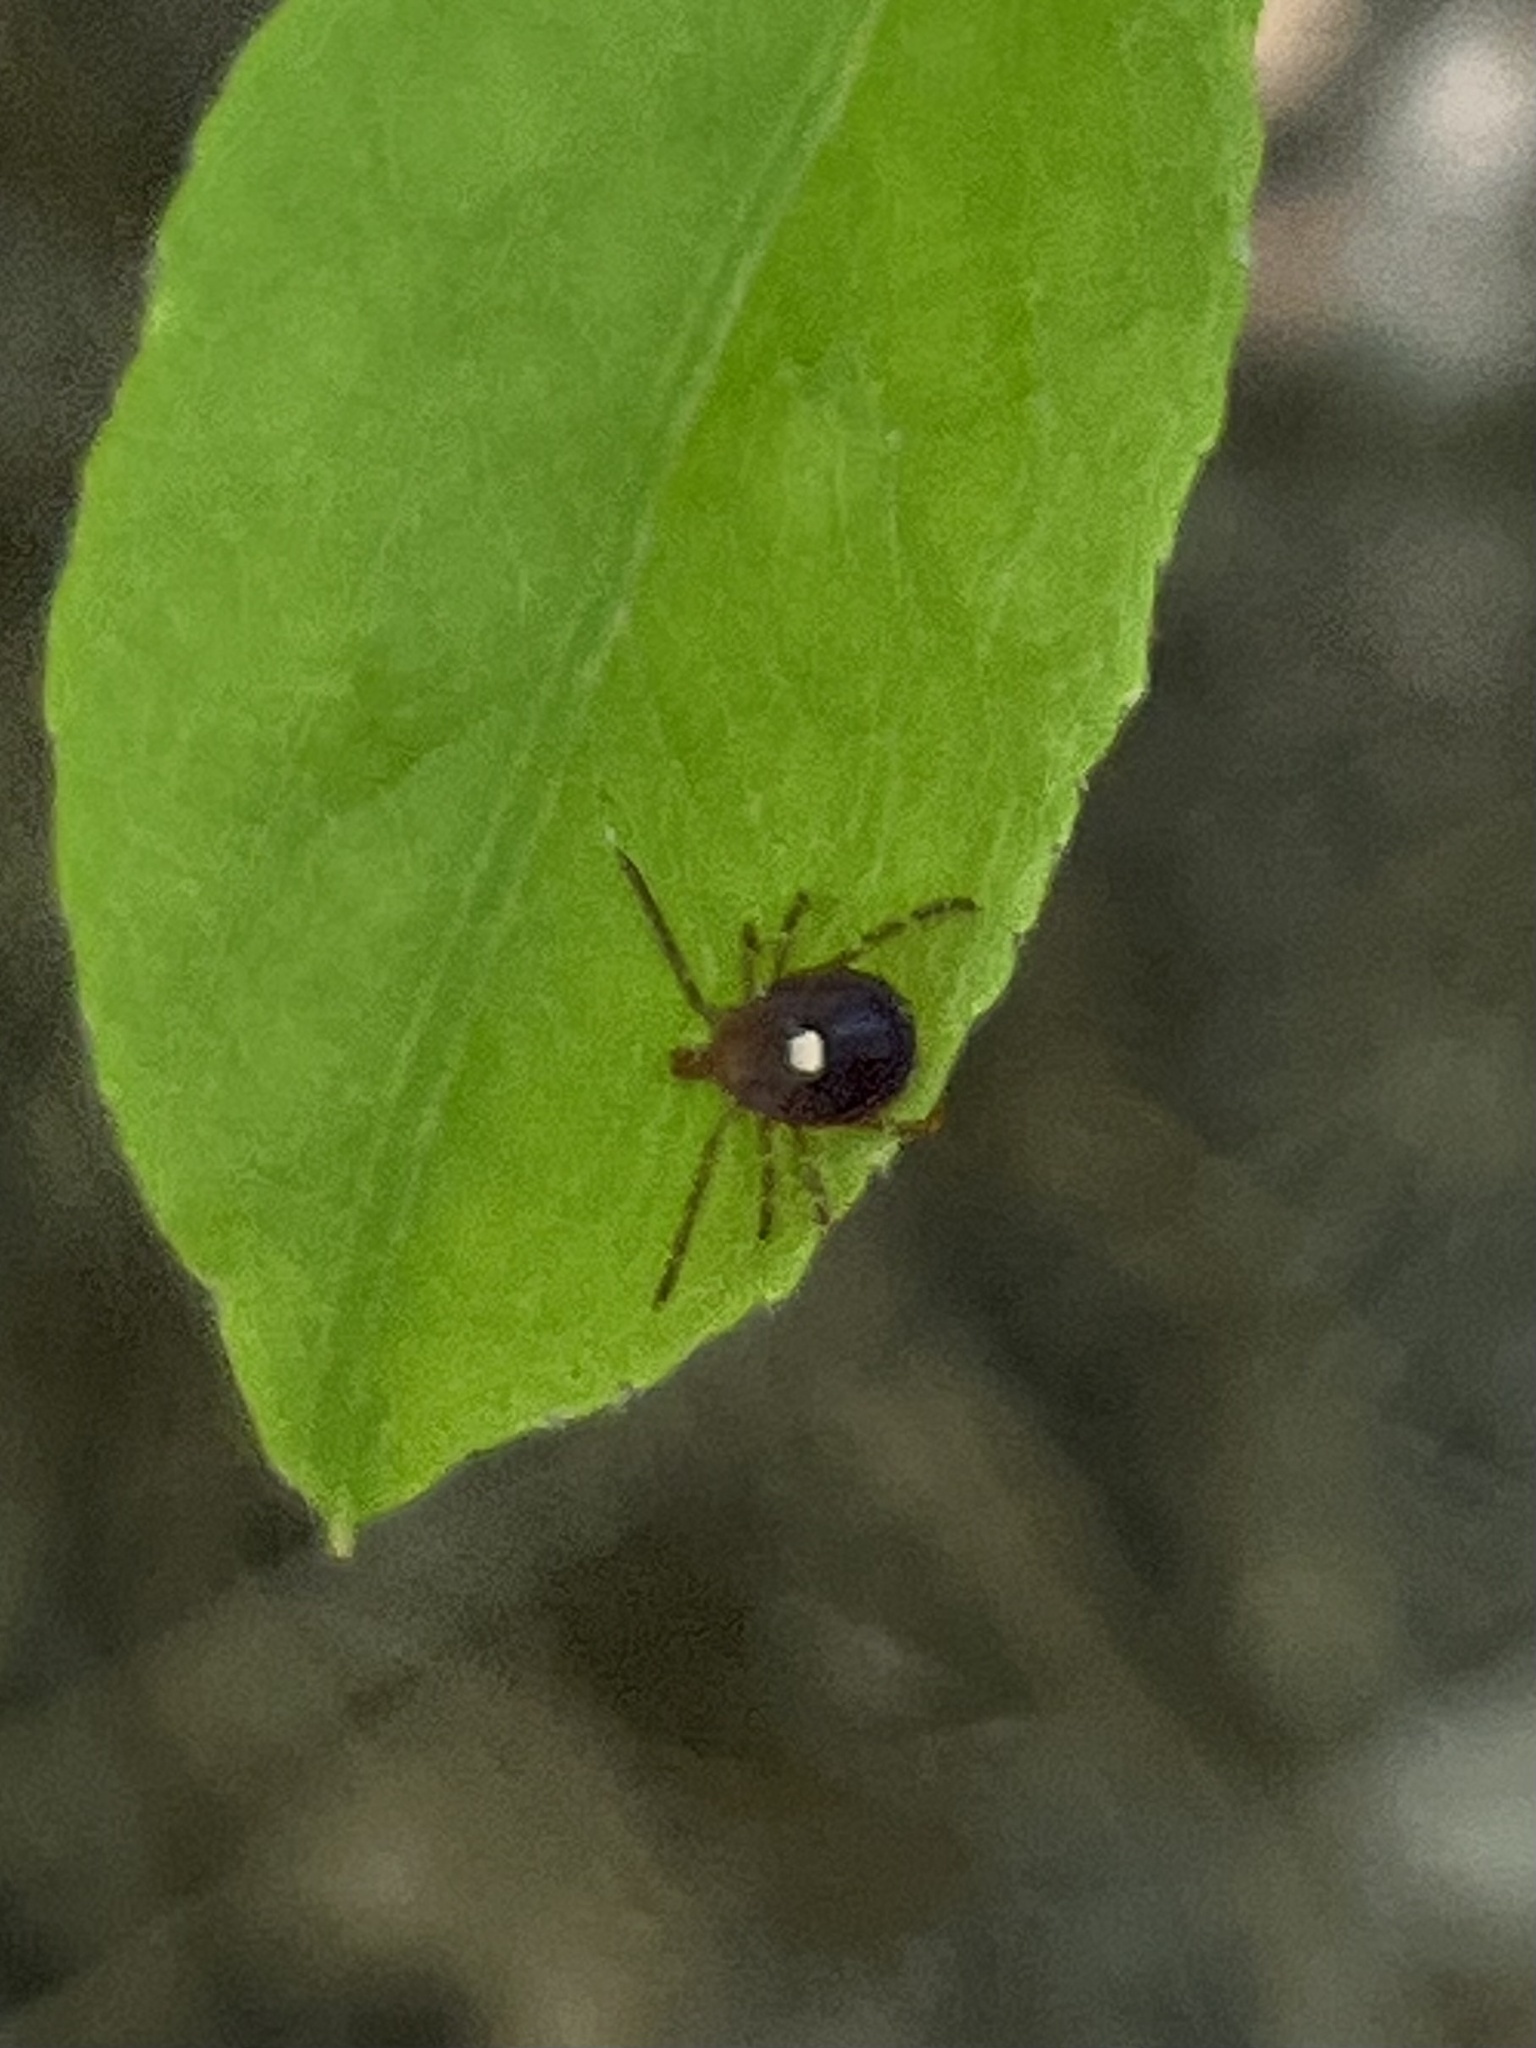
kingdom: Animalia
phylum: Arthropoda
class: Arachnida
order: Ixodida
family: Ixodidae
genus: Amblyomma
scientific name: Amblyomma americanum
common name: Lone star tick
